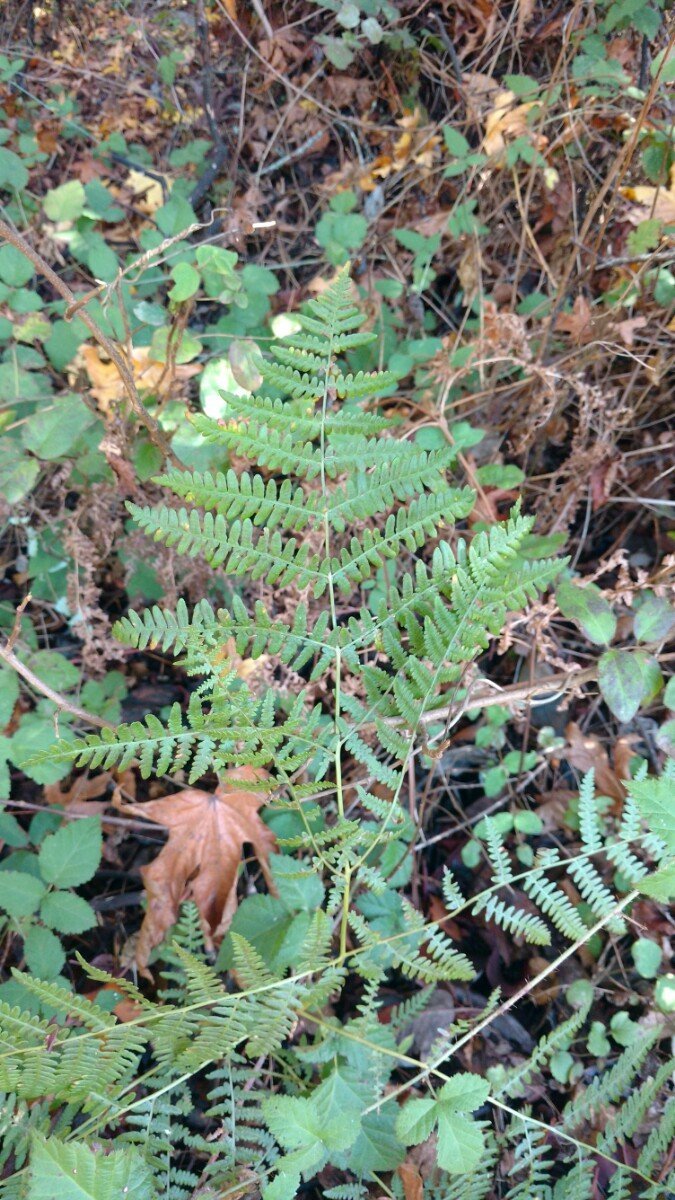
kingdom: Plantae
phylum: Tracheophyta
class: Polypodiopsida
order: Polypodiales
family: Dennstaedtiaceae
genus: Pteridium
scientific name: Pteridium aquilinum
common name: Bracken
